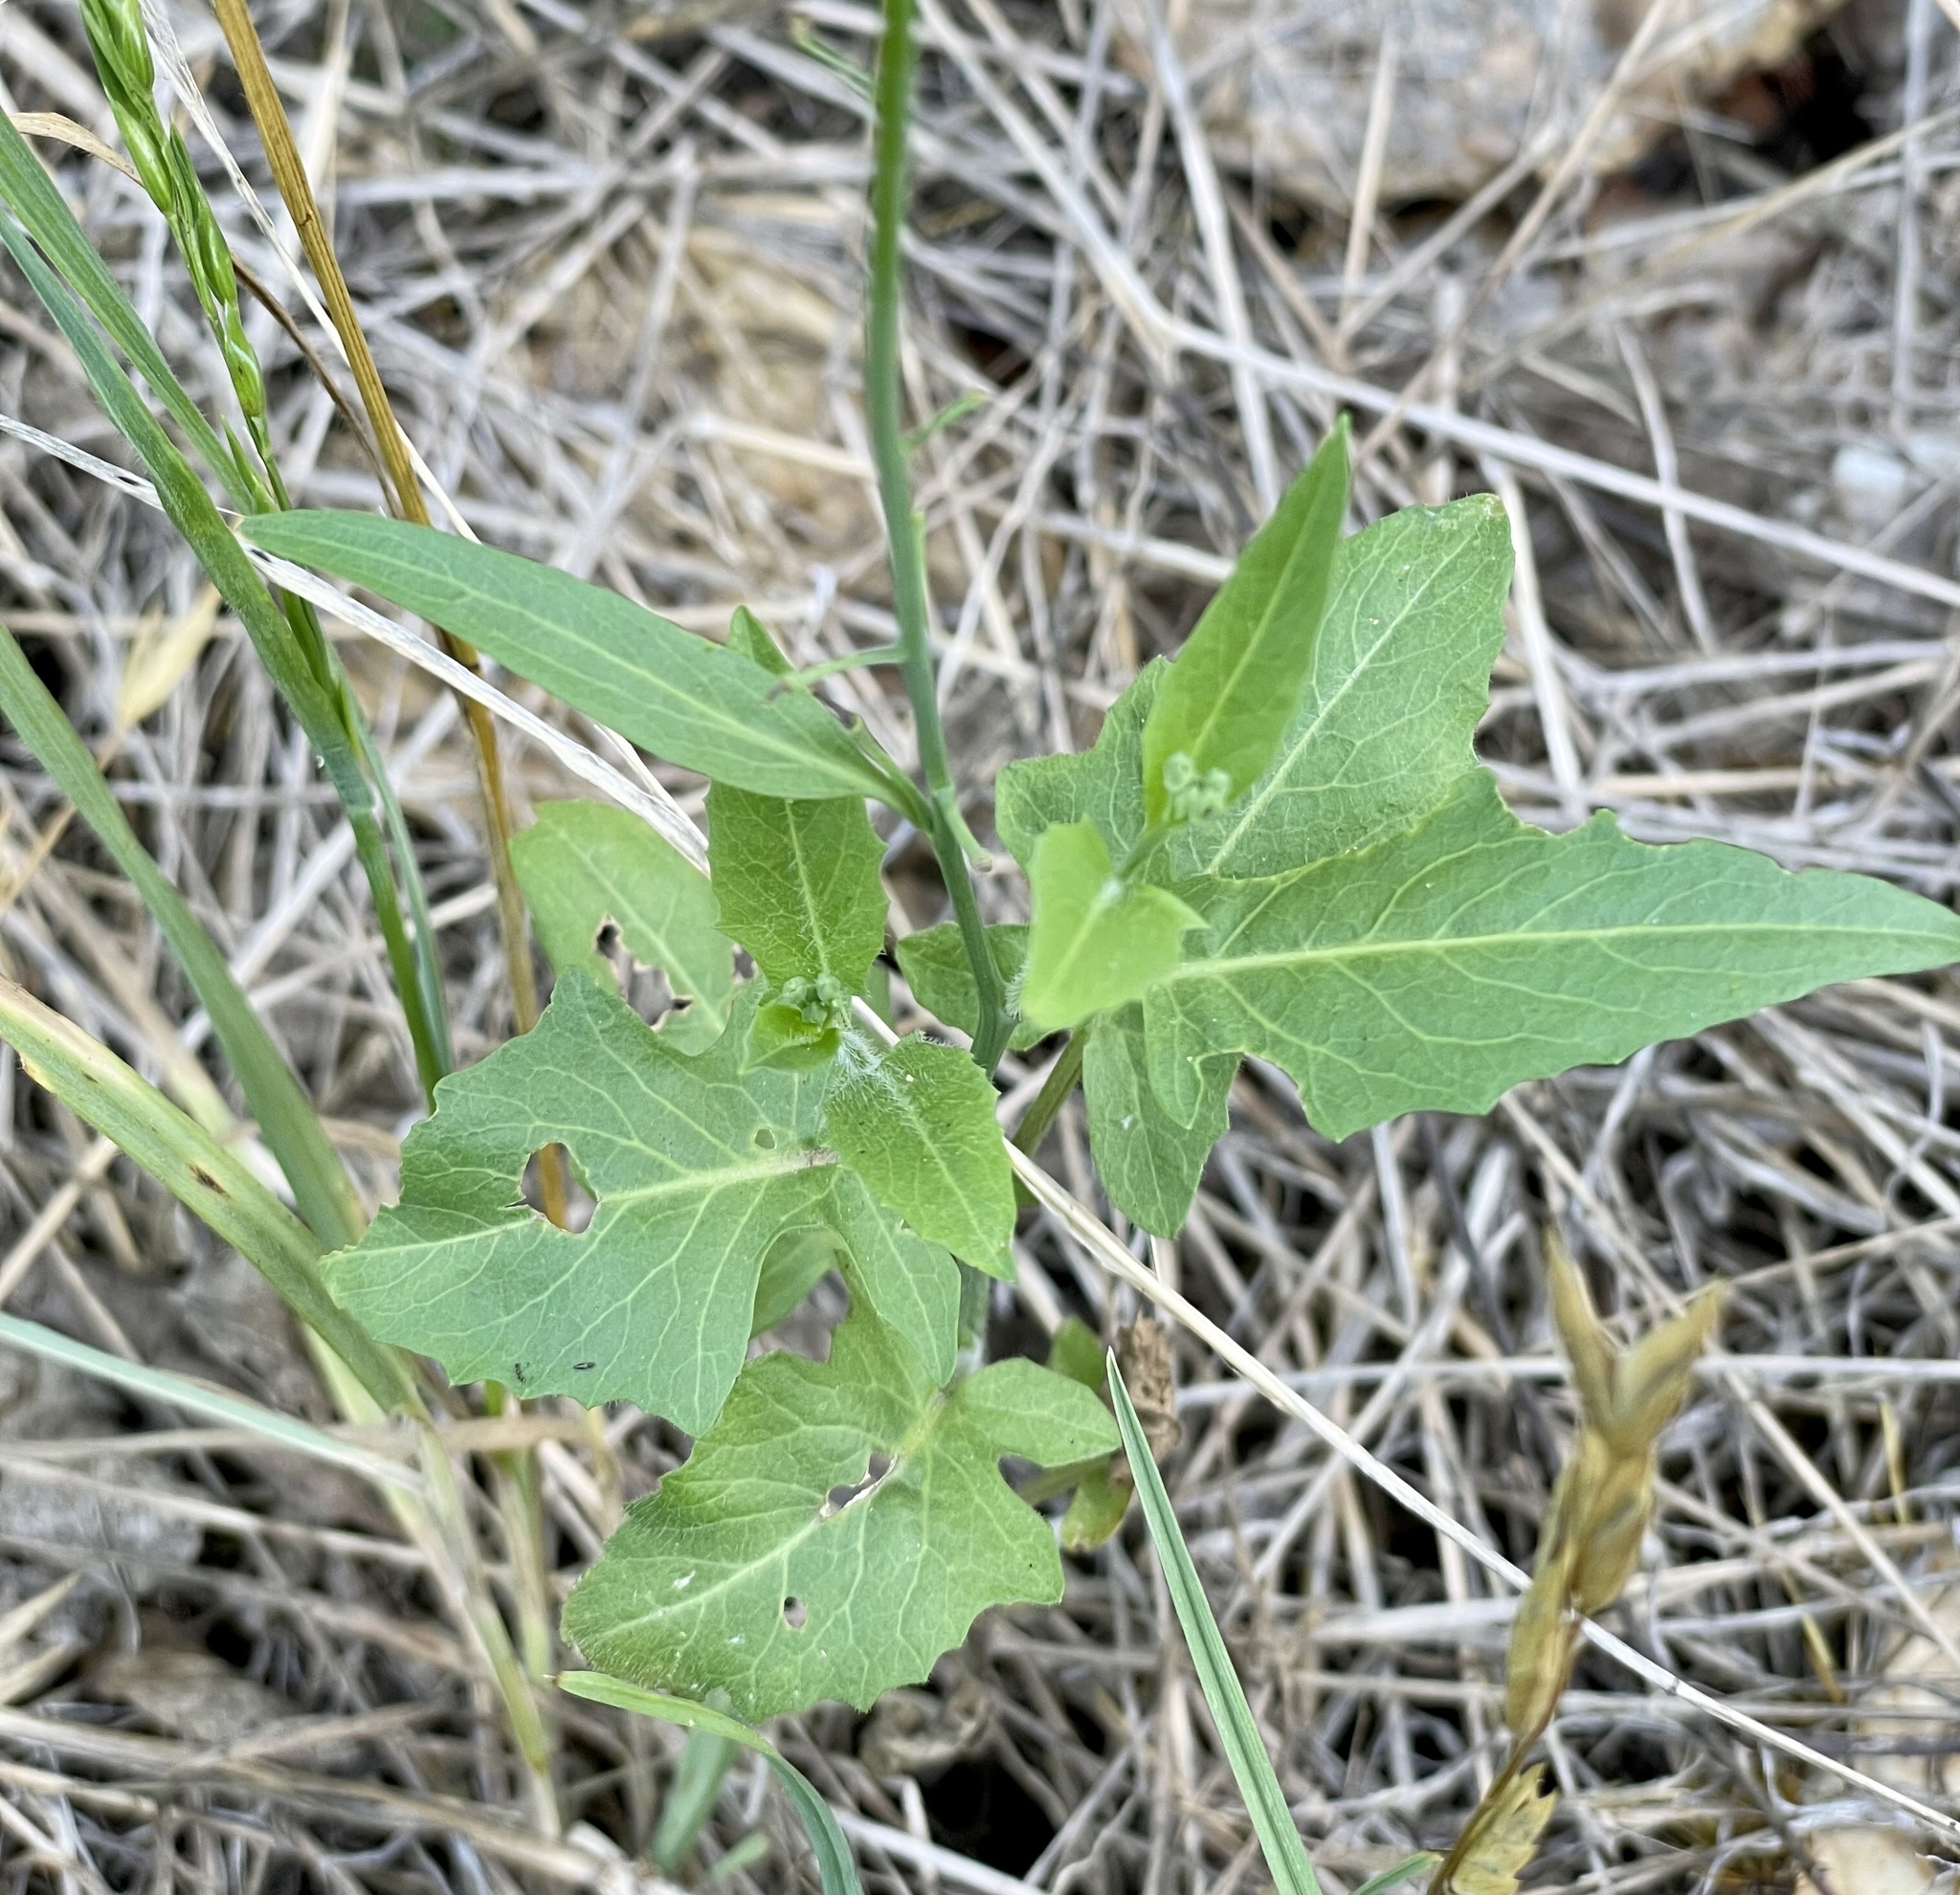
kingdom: Plantae
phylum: Tracheophyta
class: Magnoliopsida
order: Brassicales
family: Brassicaceae
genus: Streptanthus
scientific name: Streptanthus petiolaris
